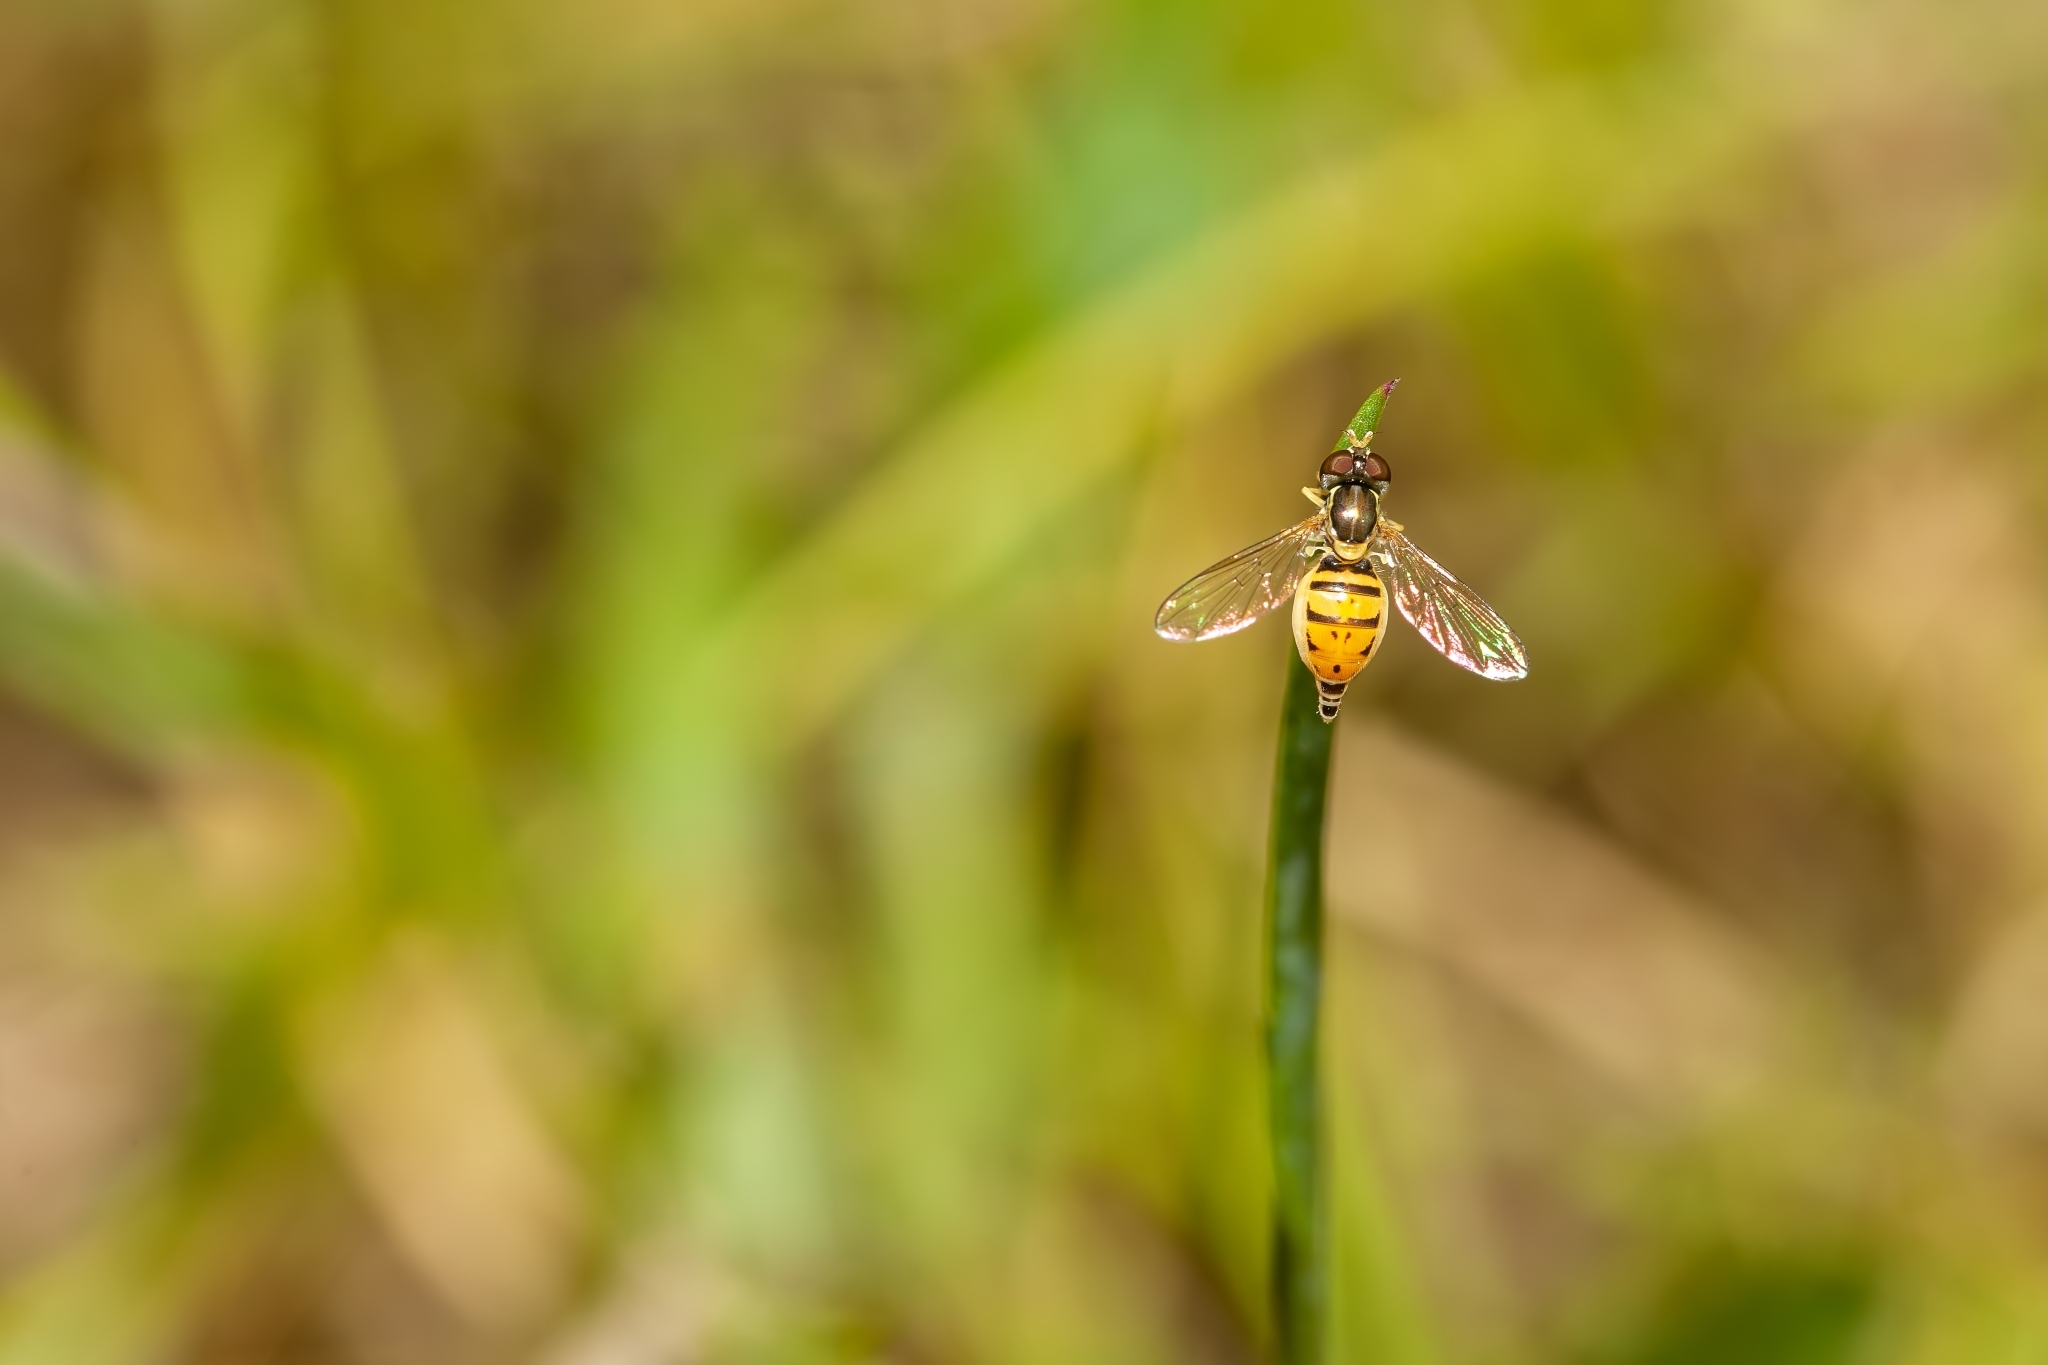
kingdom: Animalia
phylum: Arthropoda
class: Insecta
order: Diptera
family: Syrphidae
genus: Toxomerus
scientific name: Toxomerus marginatus
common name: Syrphid fly
